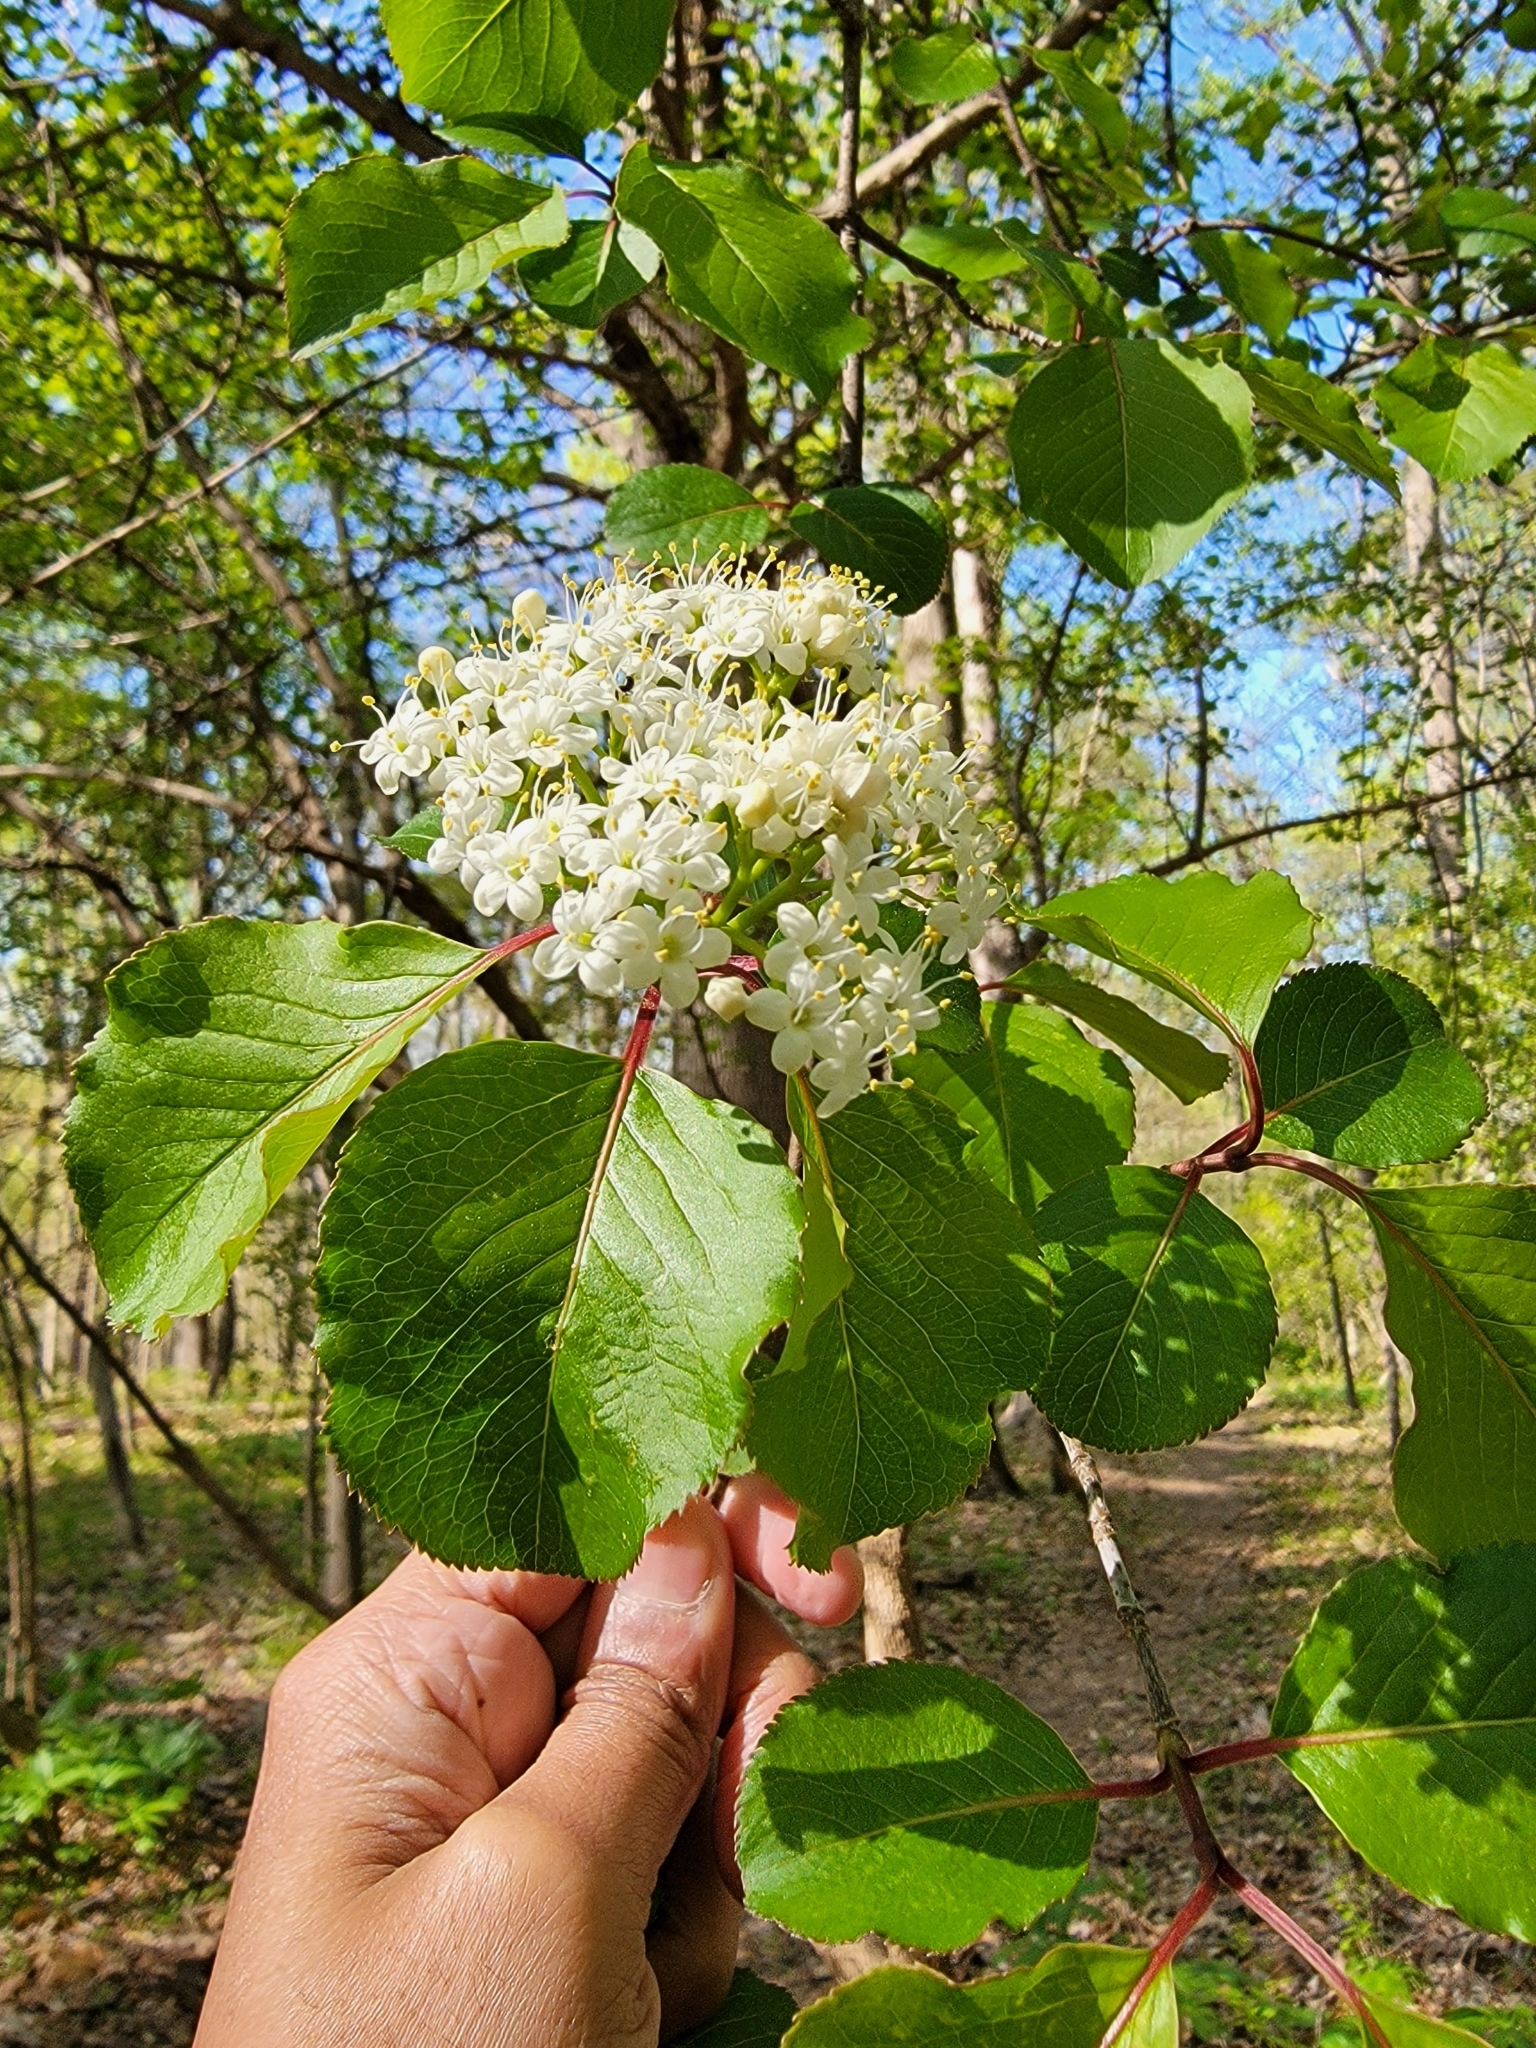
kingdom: Plantae
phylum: Tracheophyta
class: Magnoliopsida
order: Dipsacales
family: Viburnaceae
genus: Viburnum
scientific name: Viburnum prunifolium
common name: Black haw
